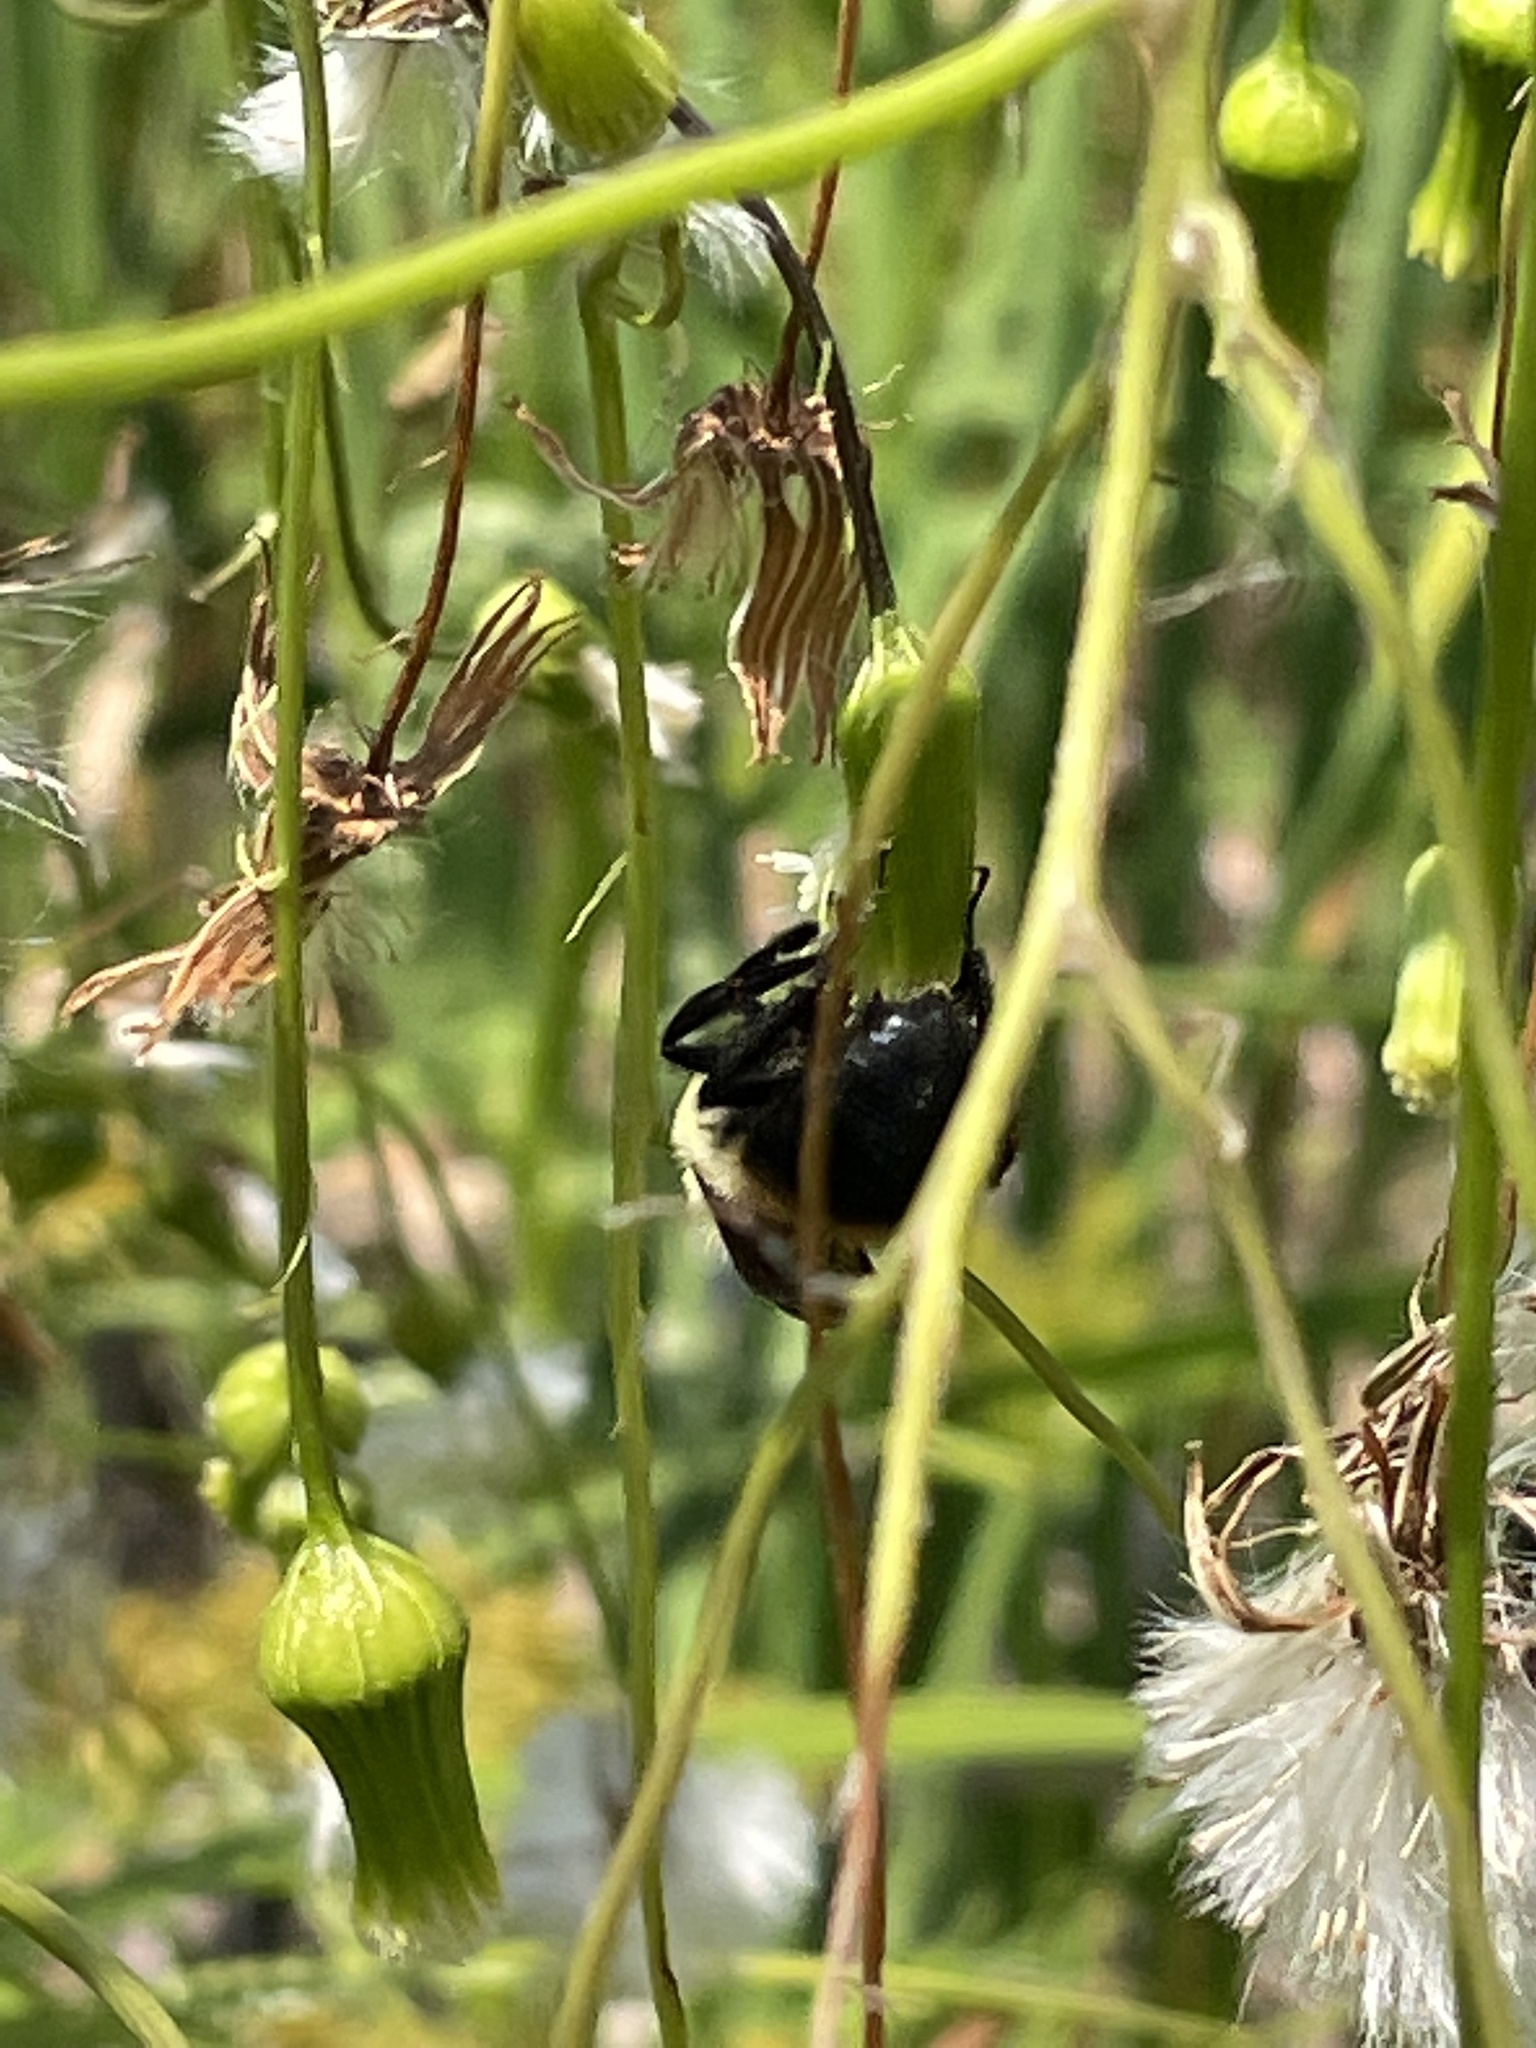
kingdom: Animalia
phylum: Arthropoda
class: Insecta
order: Hymenoptera
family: Apidae
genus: Bombus
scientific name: Bombus griseocollis
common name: Brown-belted bumble bee
